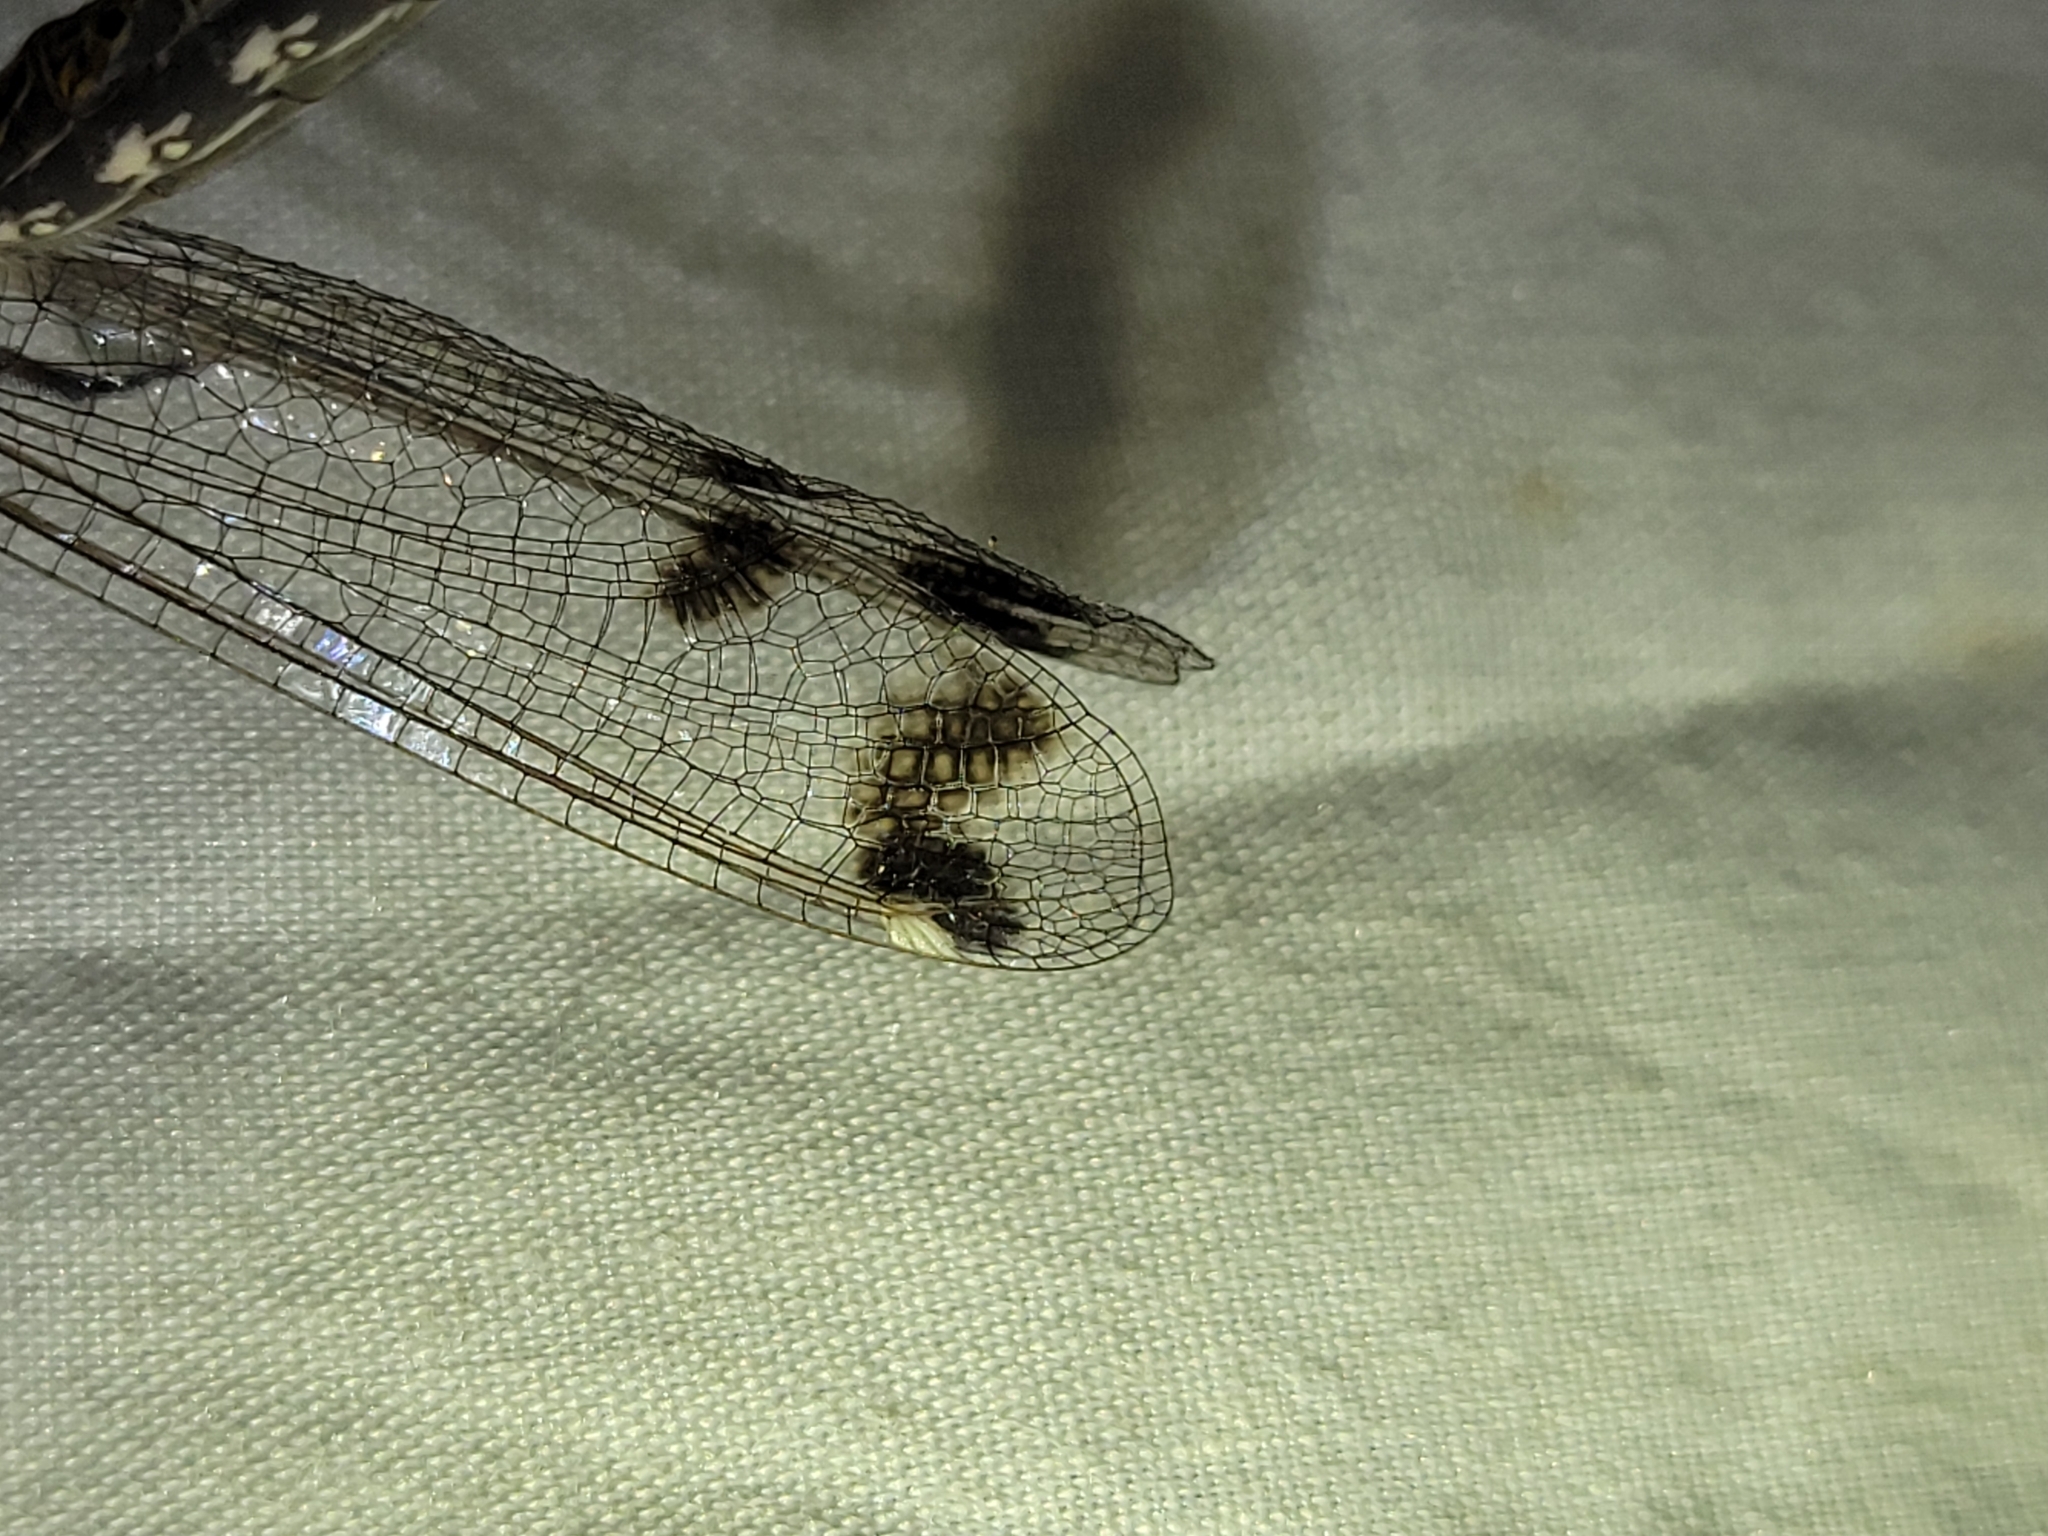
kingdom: Animalia
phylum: Arthropoda
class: Insecta
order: Neuroptera
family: Ascalaphidae
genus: Ululodes
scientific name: Ululodes quadripunctatus
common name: Four-spotted owlfly
